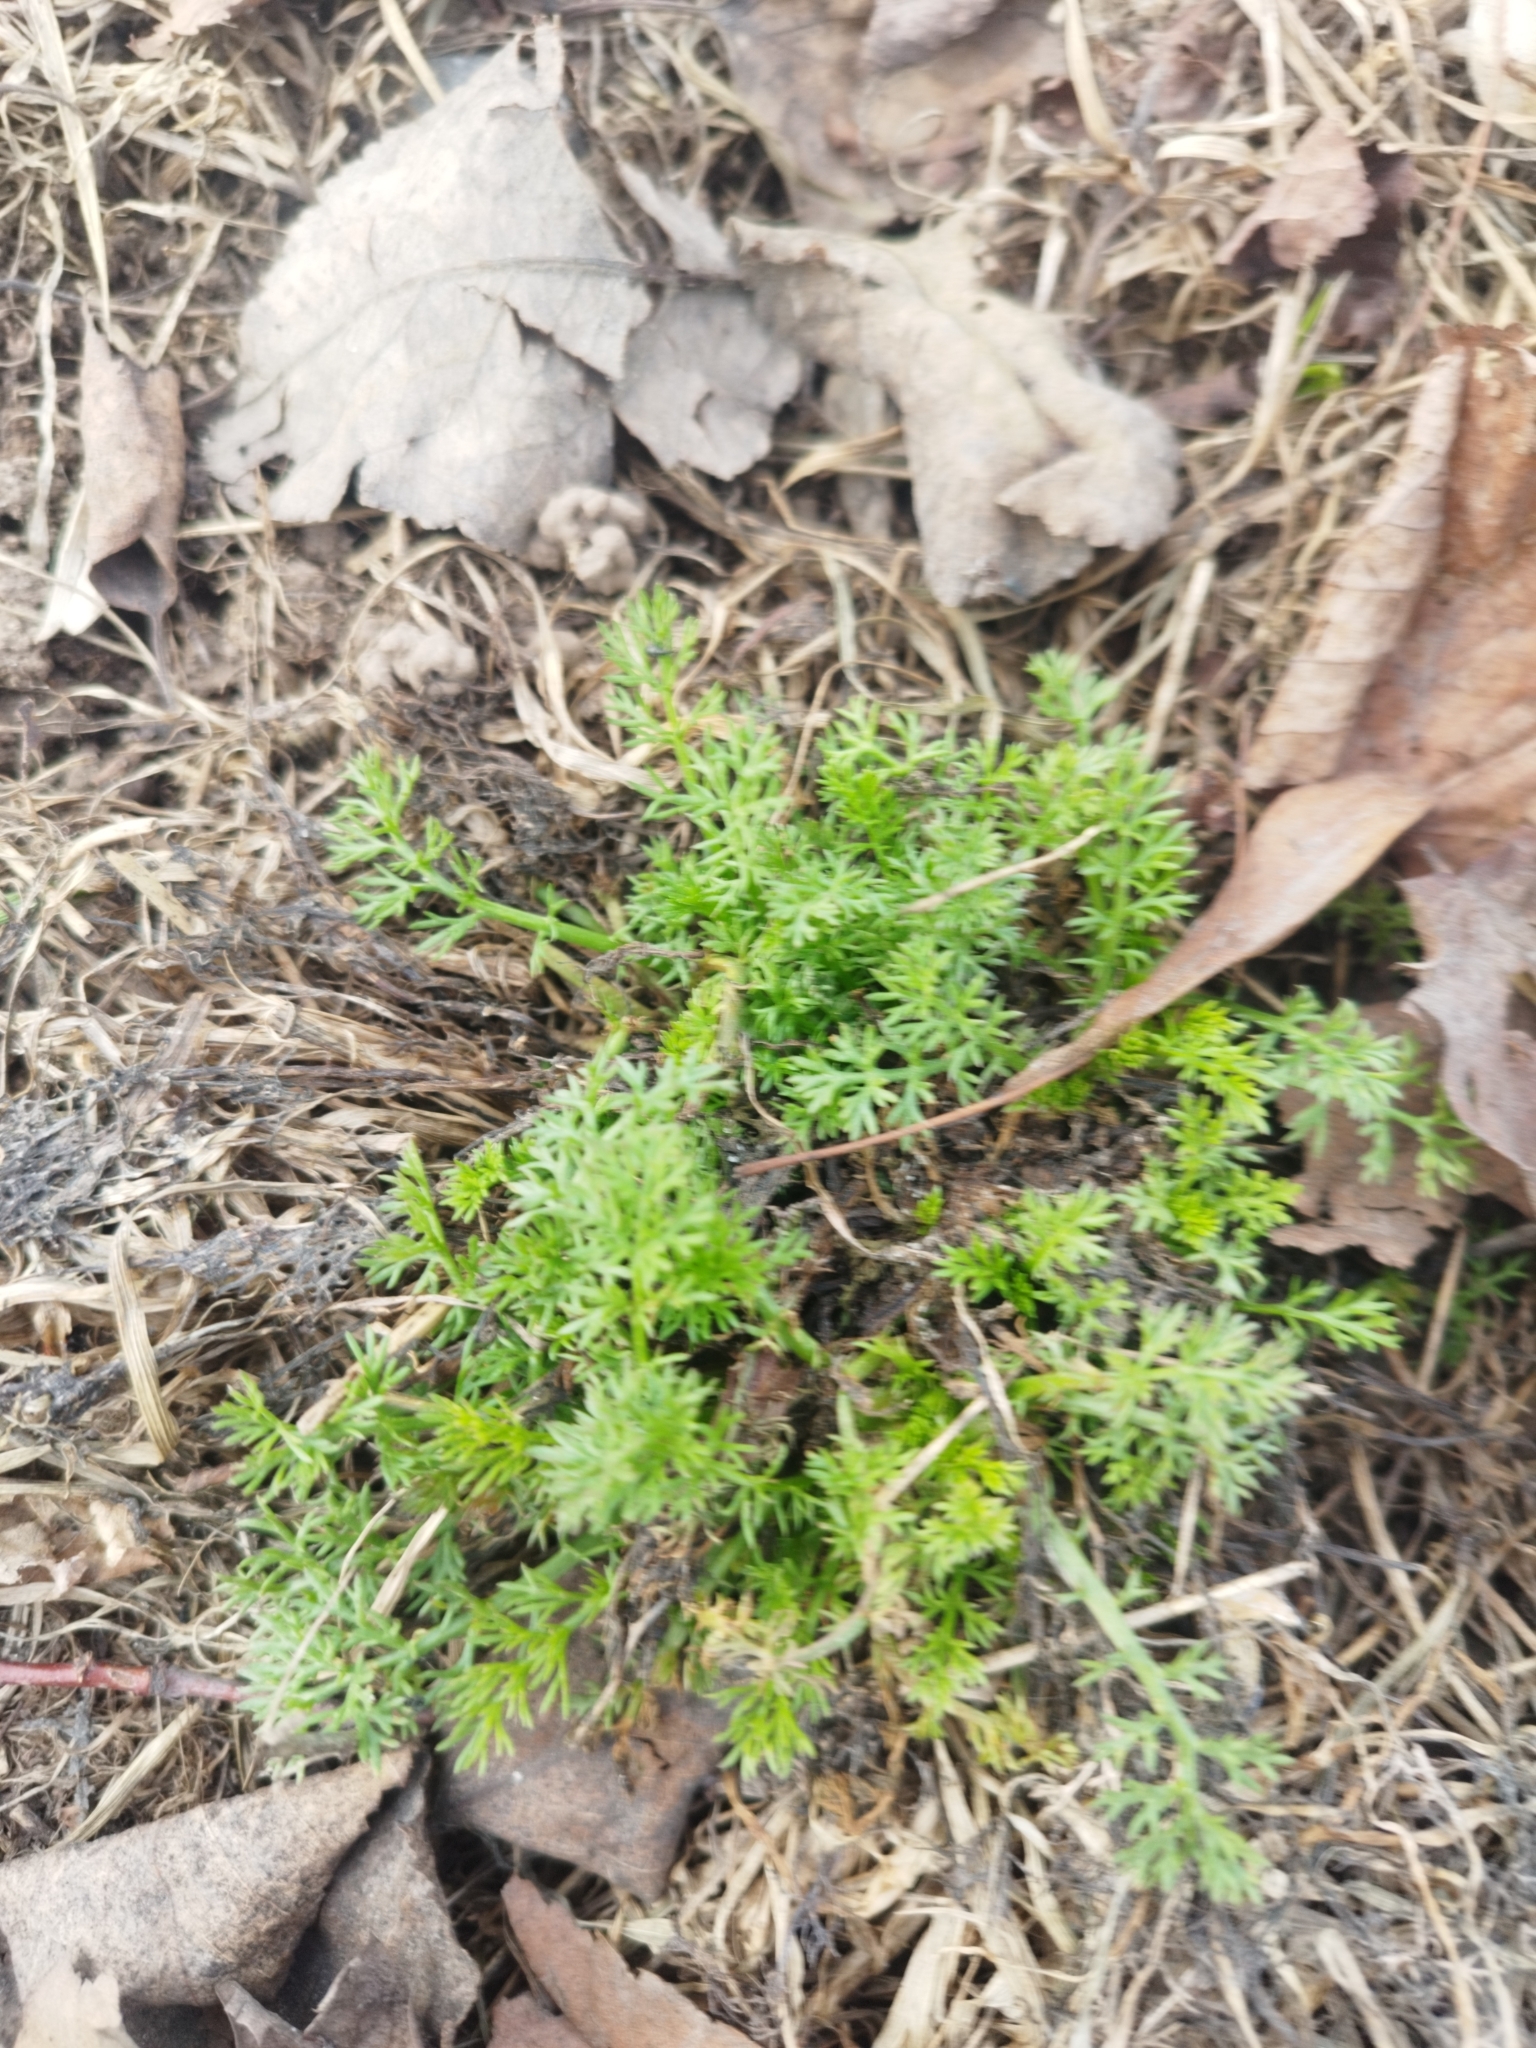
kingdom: Plantae
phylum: Tracheophyta
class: Magnoliopsida
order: Asterales
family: Asteraceae
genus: Tripleurospermum
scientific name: Tripleurospermum inodorum
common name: Scentless mayweed
